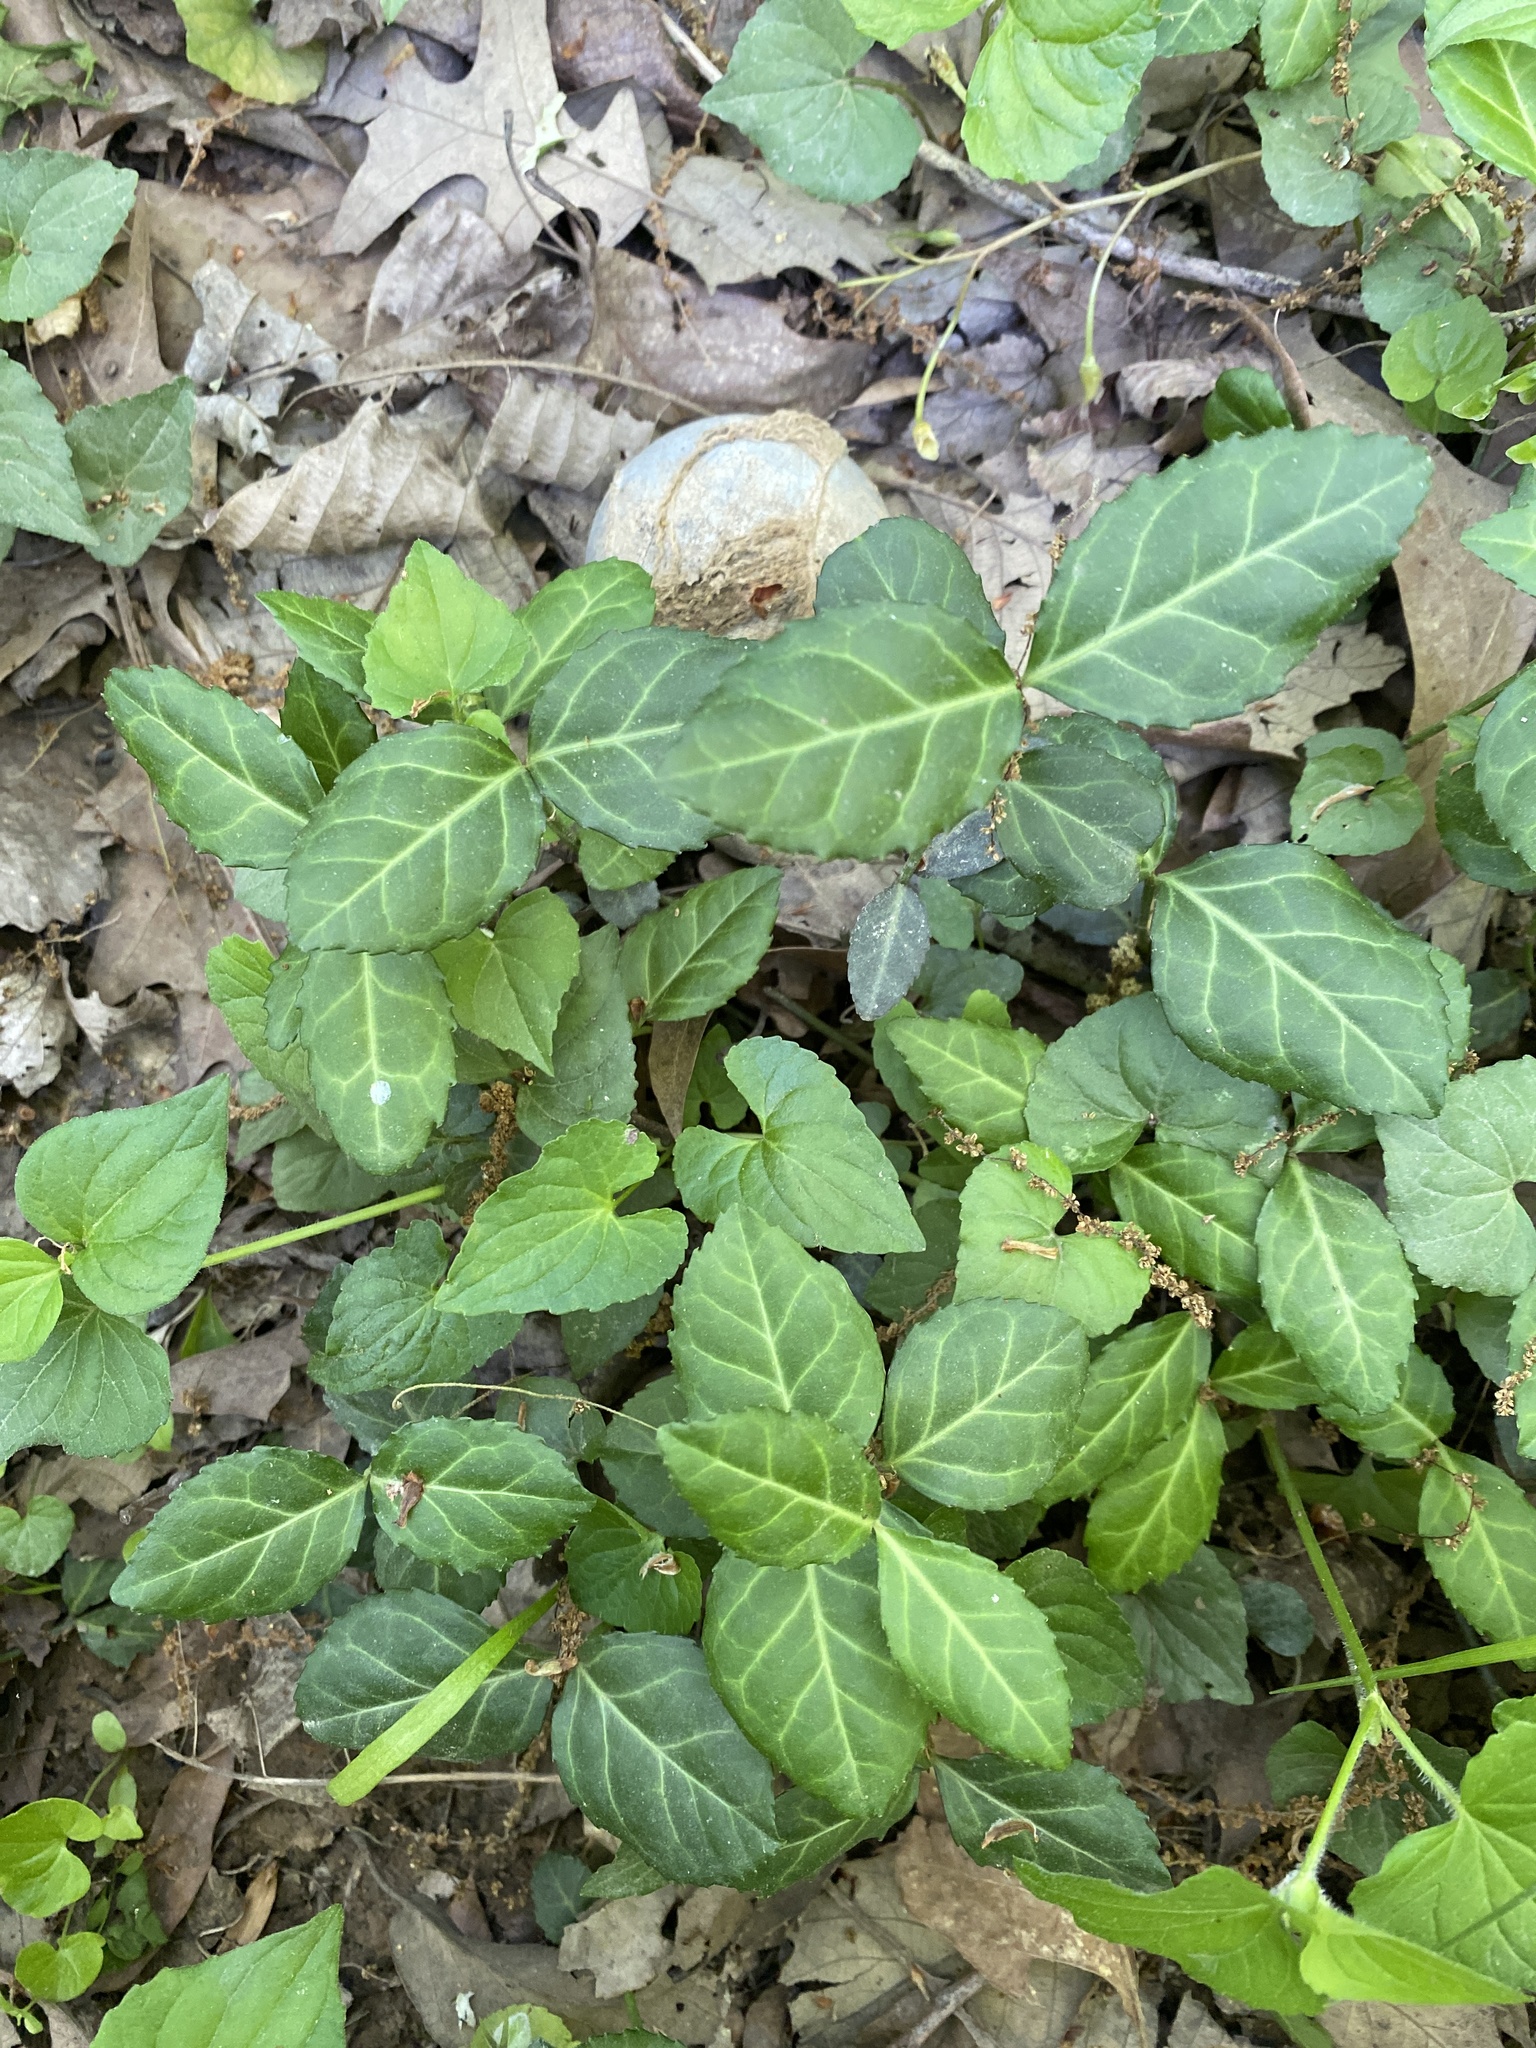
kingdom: Plantae
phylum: Tracheophyta
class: Magnoliopsida
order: Celastrales
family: Celastraceae
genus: Euonymus
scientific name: Euonymus fortunei
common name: Climbing euonymus
